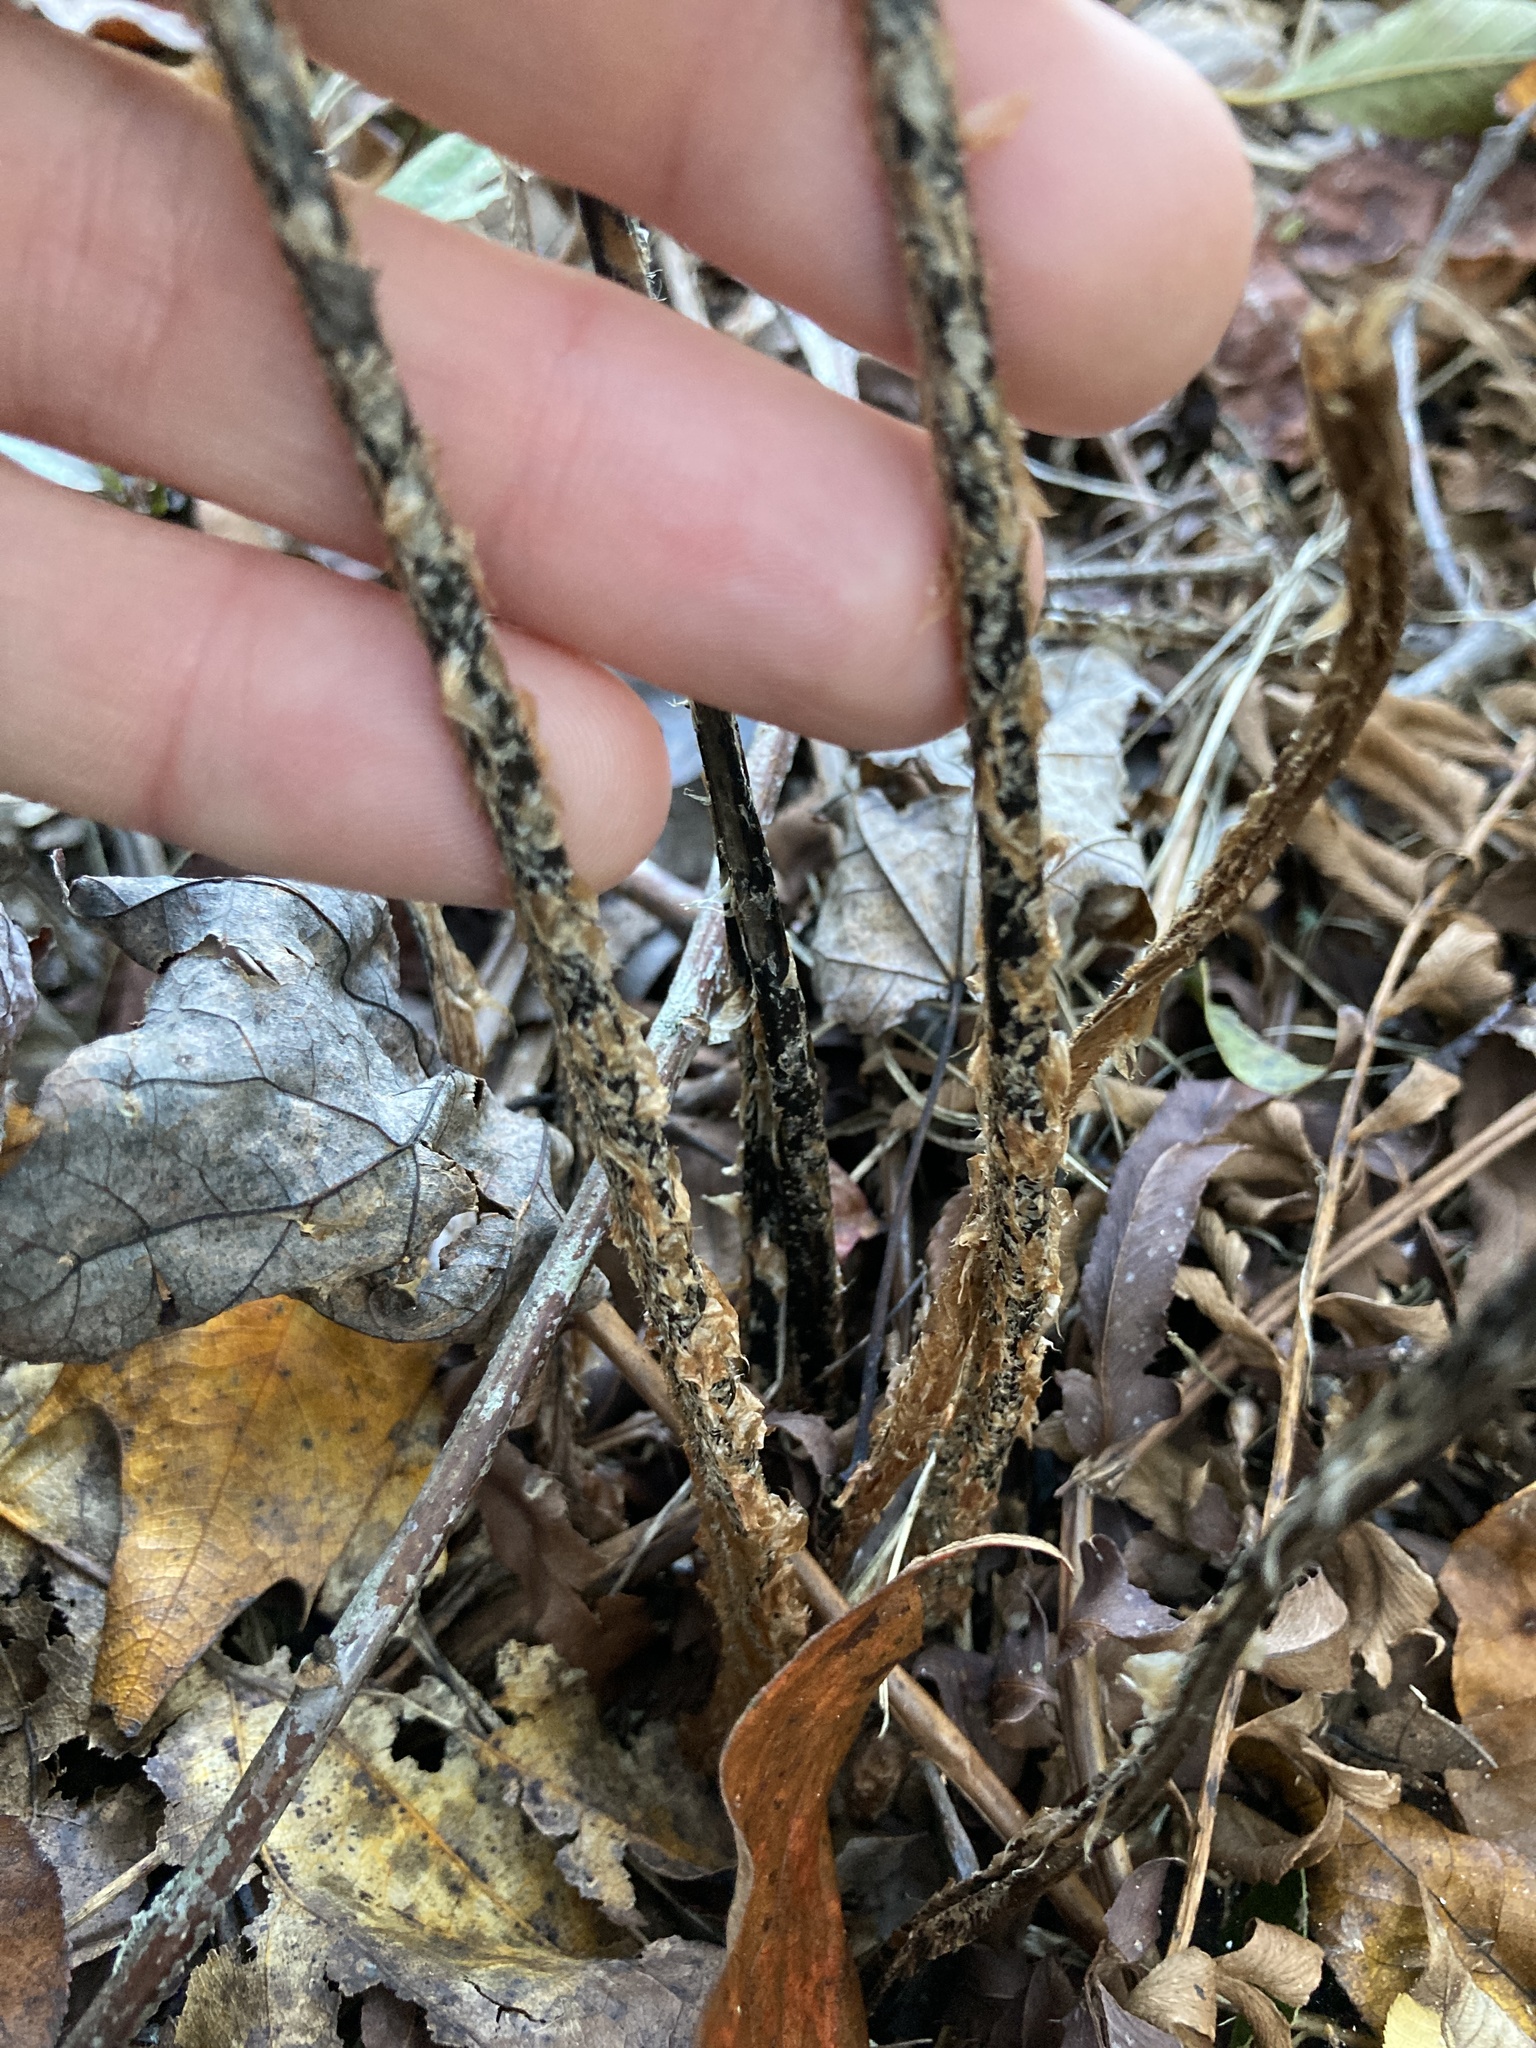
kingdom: Plantae
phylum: Tracheophyta
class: Polypodiopsida
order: Polypodiales
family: Dryopteridaceae
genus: Polystichum
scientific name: Polystichum acrostichoides
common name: Christmas fern
